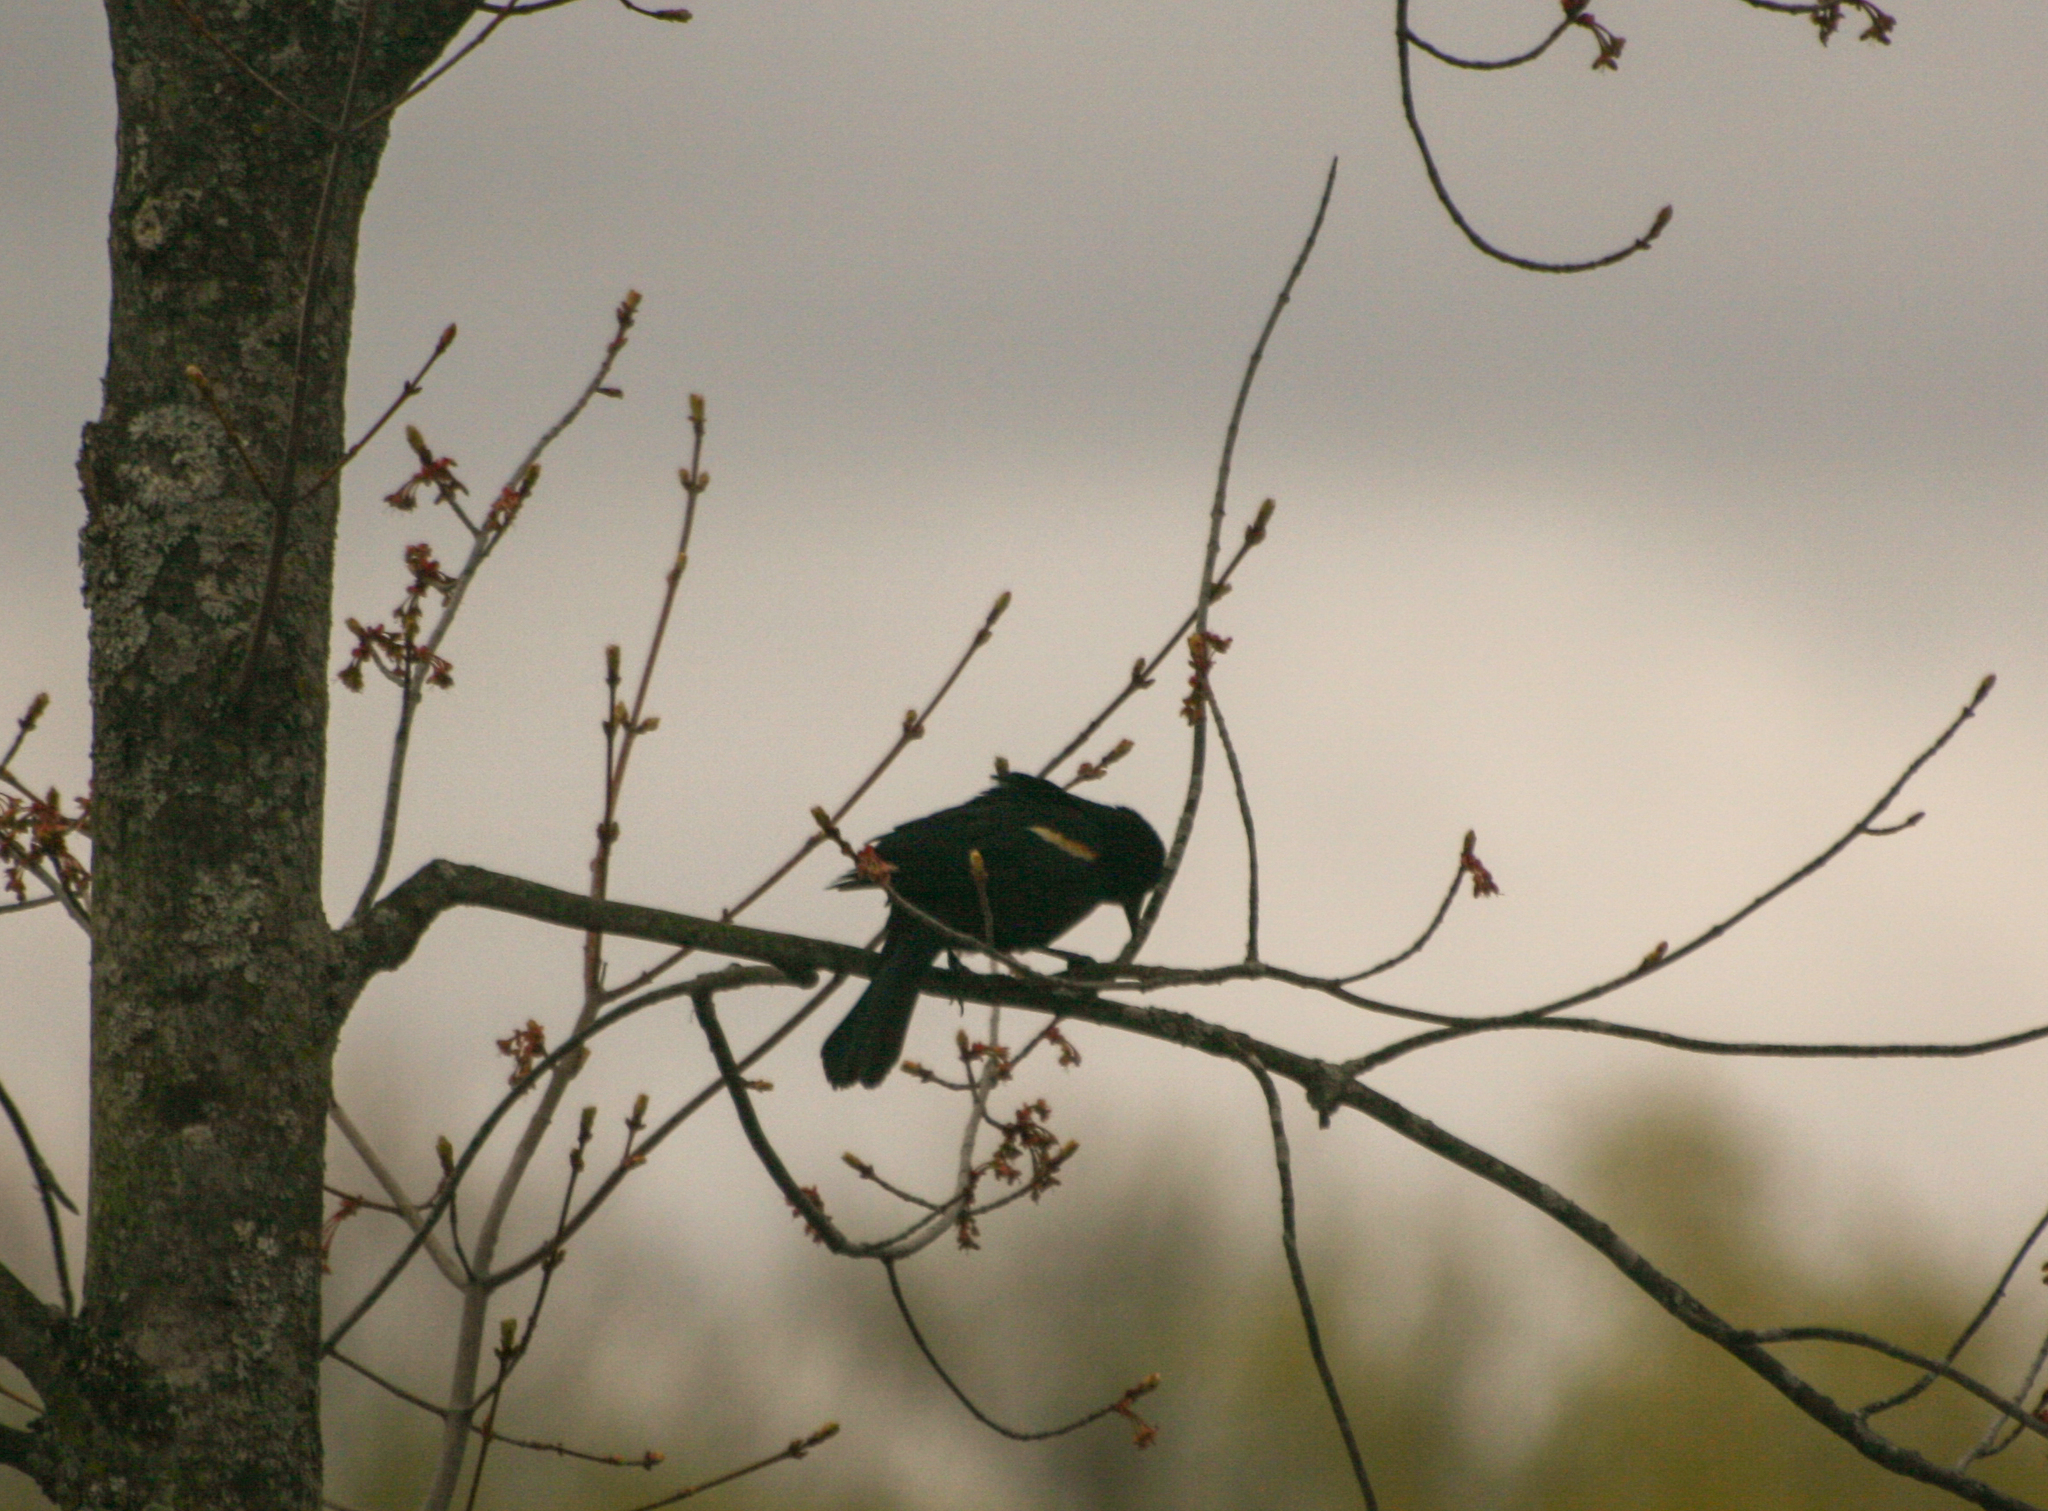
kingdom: Animalia
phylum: Chordata
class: Aves
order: Passeriformes
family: Icteridae
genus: Agelaius
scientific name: Agelaius phoeniceus
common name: Red-winged blackbird
